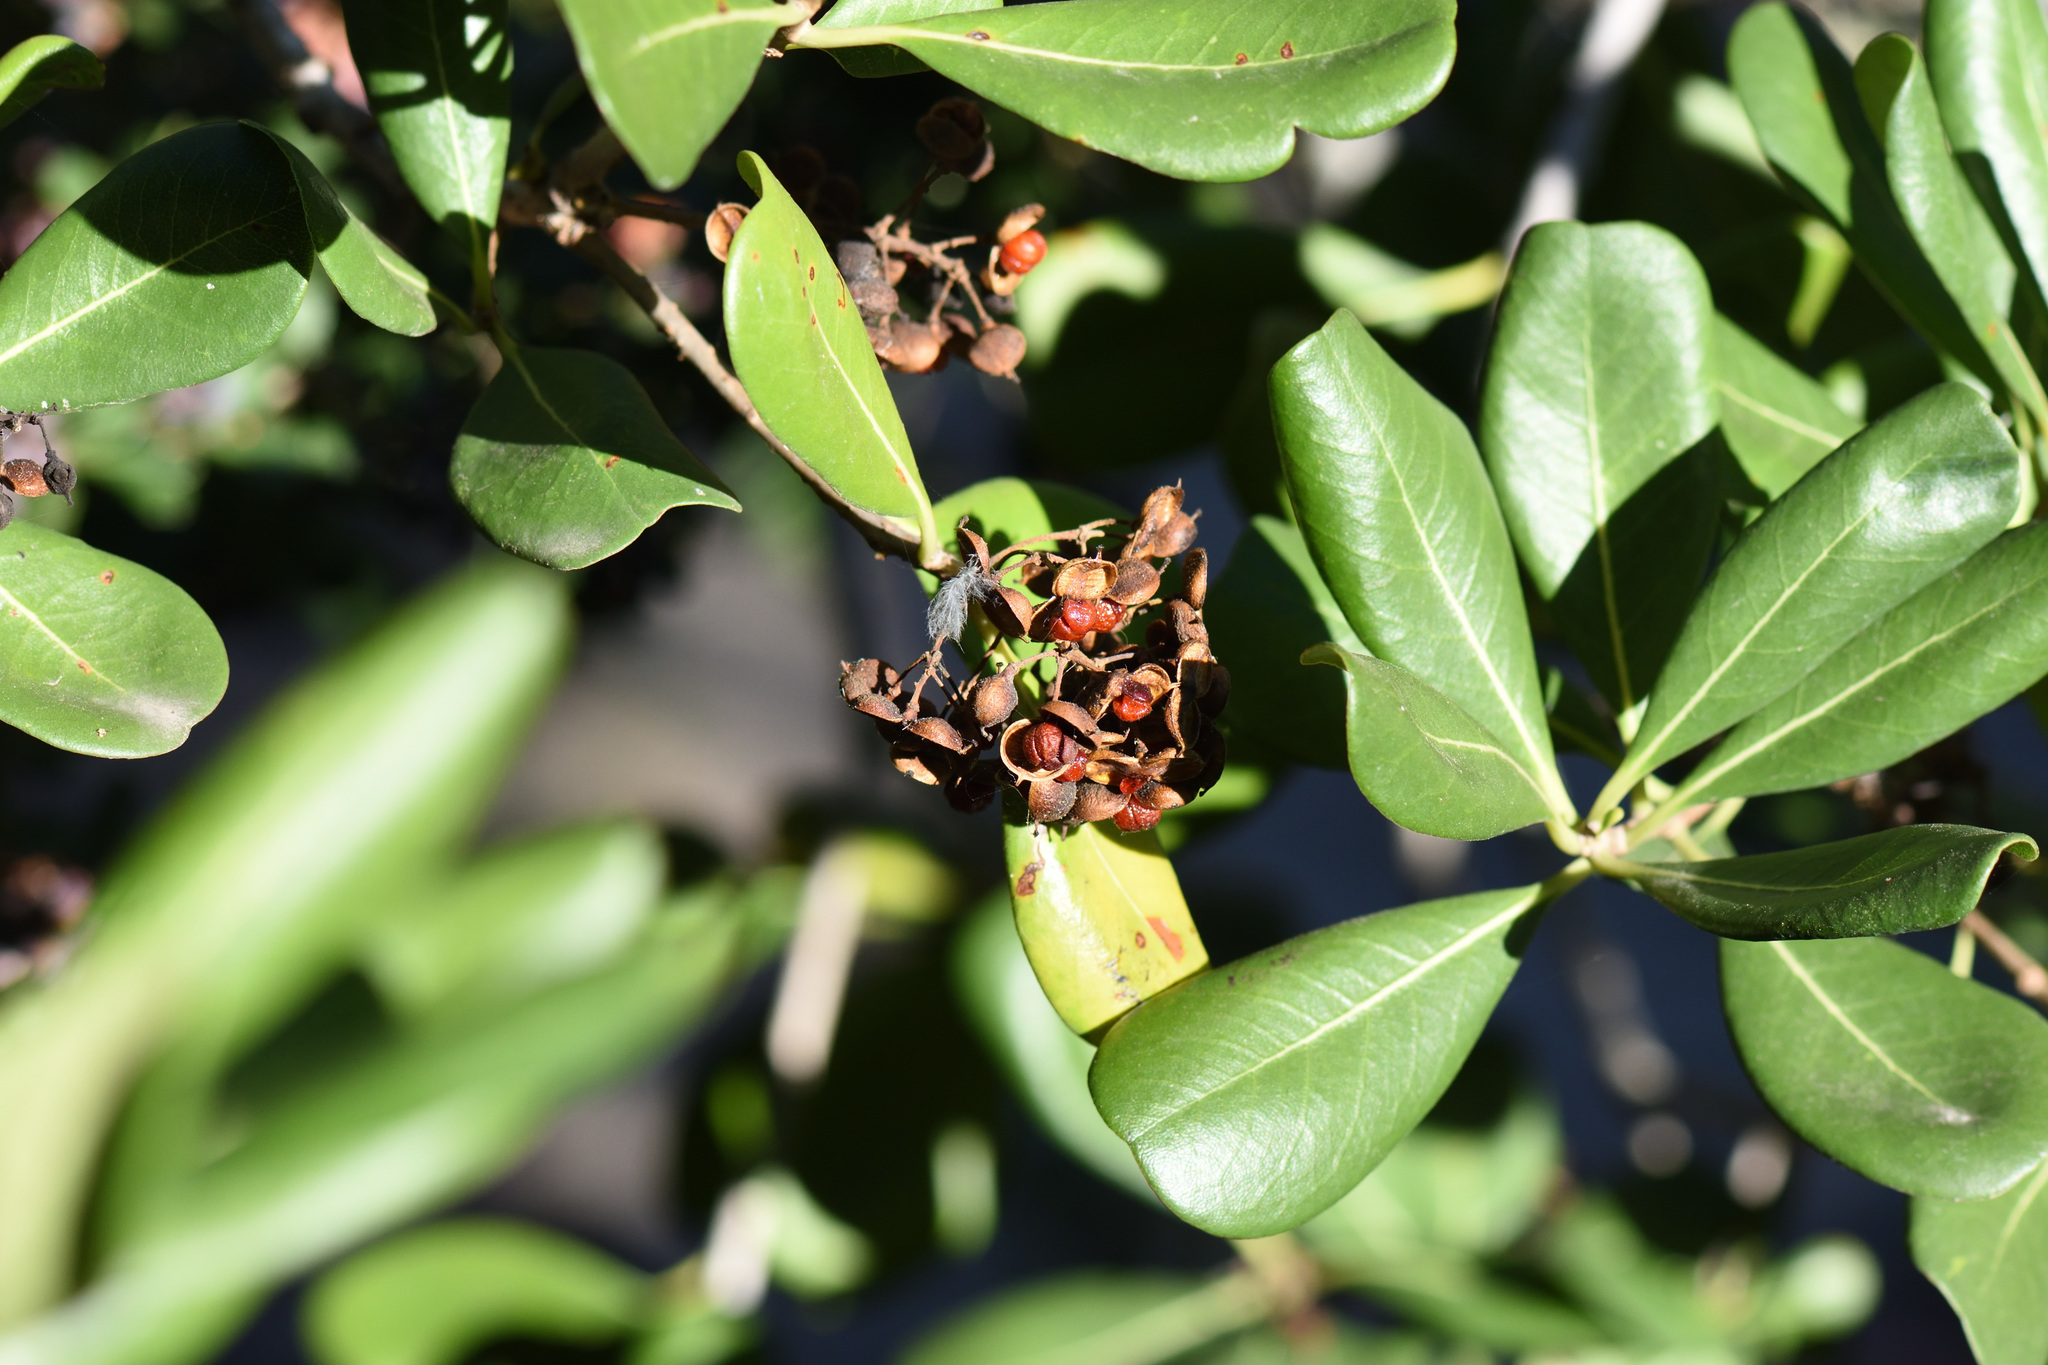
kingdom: Plantae
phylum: Tracheophyta
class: Magnoliopsida
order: Apiales
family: Pittosporaceae
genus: Pittosporum
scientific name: Pittosporum viridiflorum
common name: Cape cheesewood
